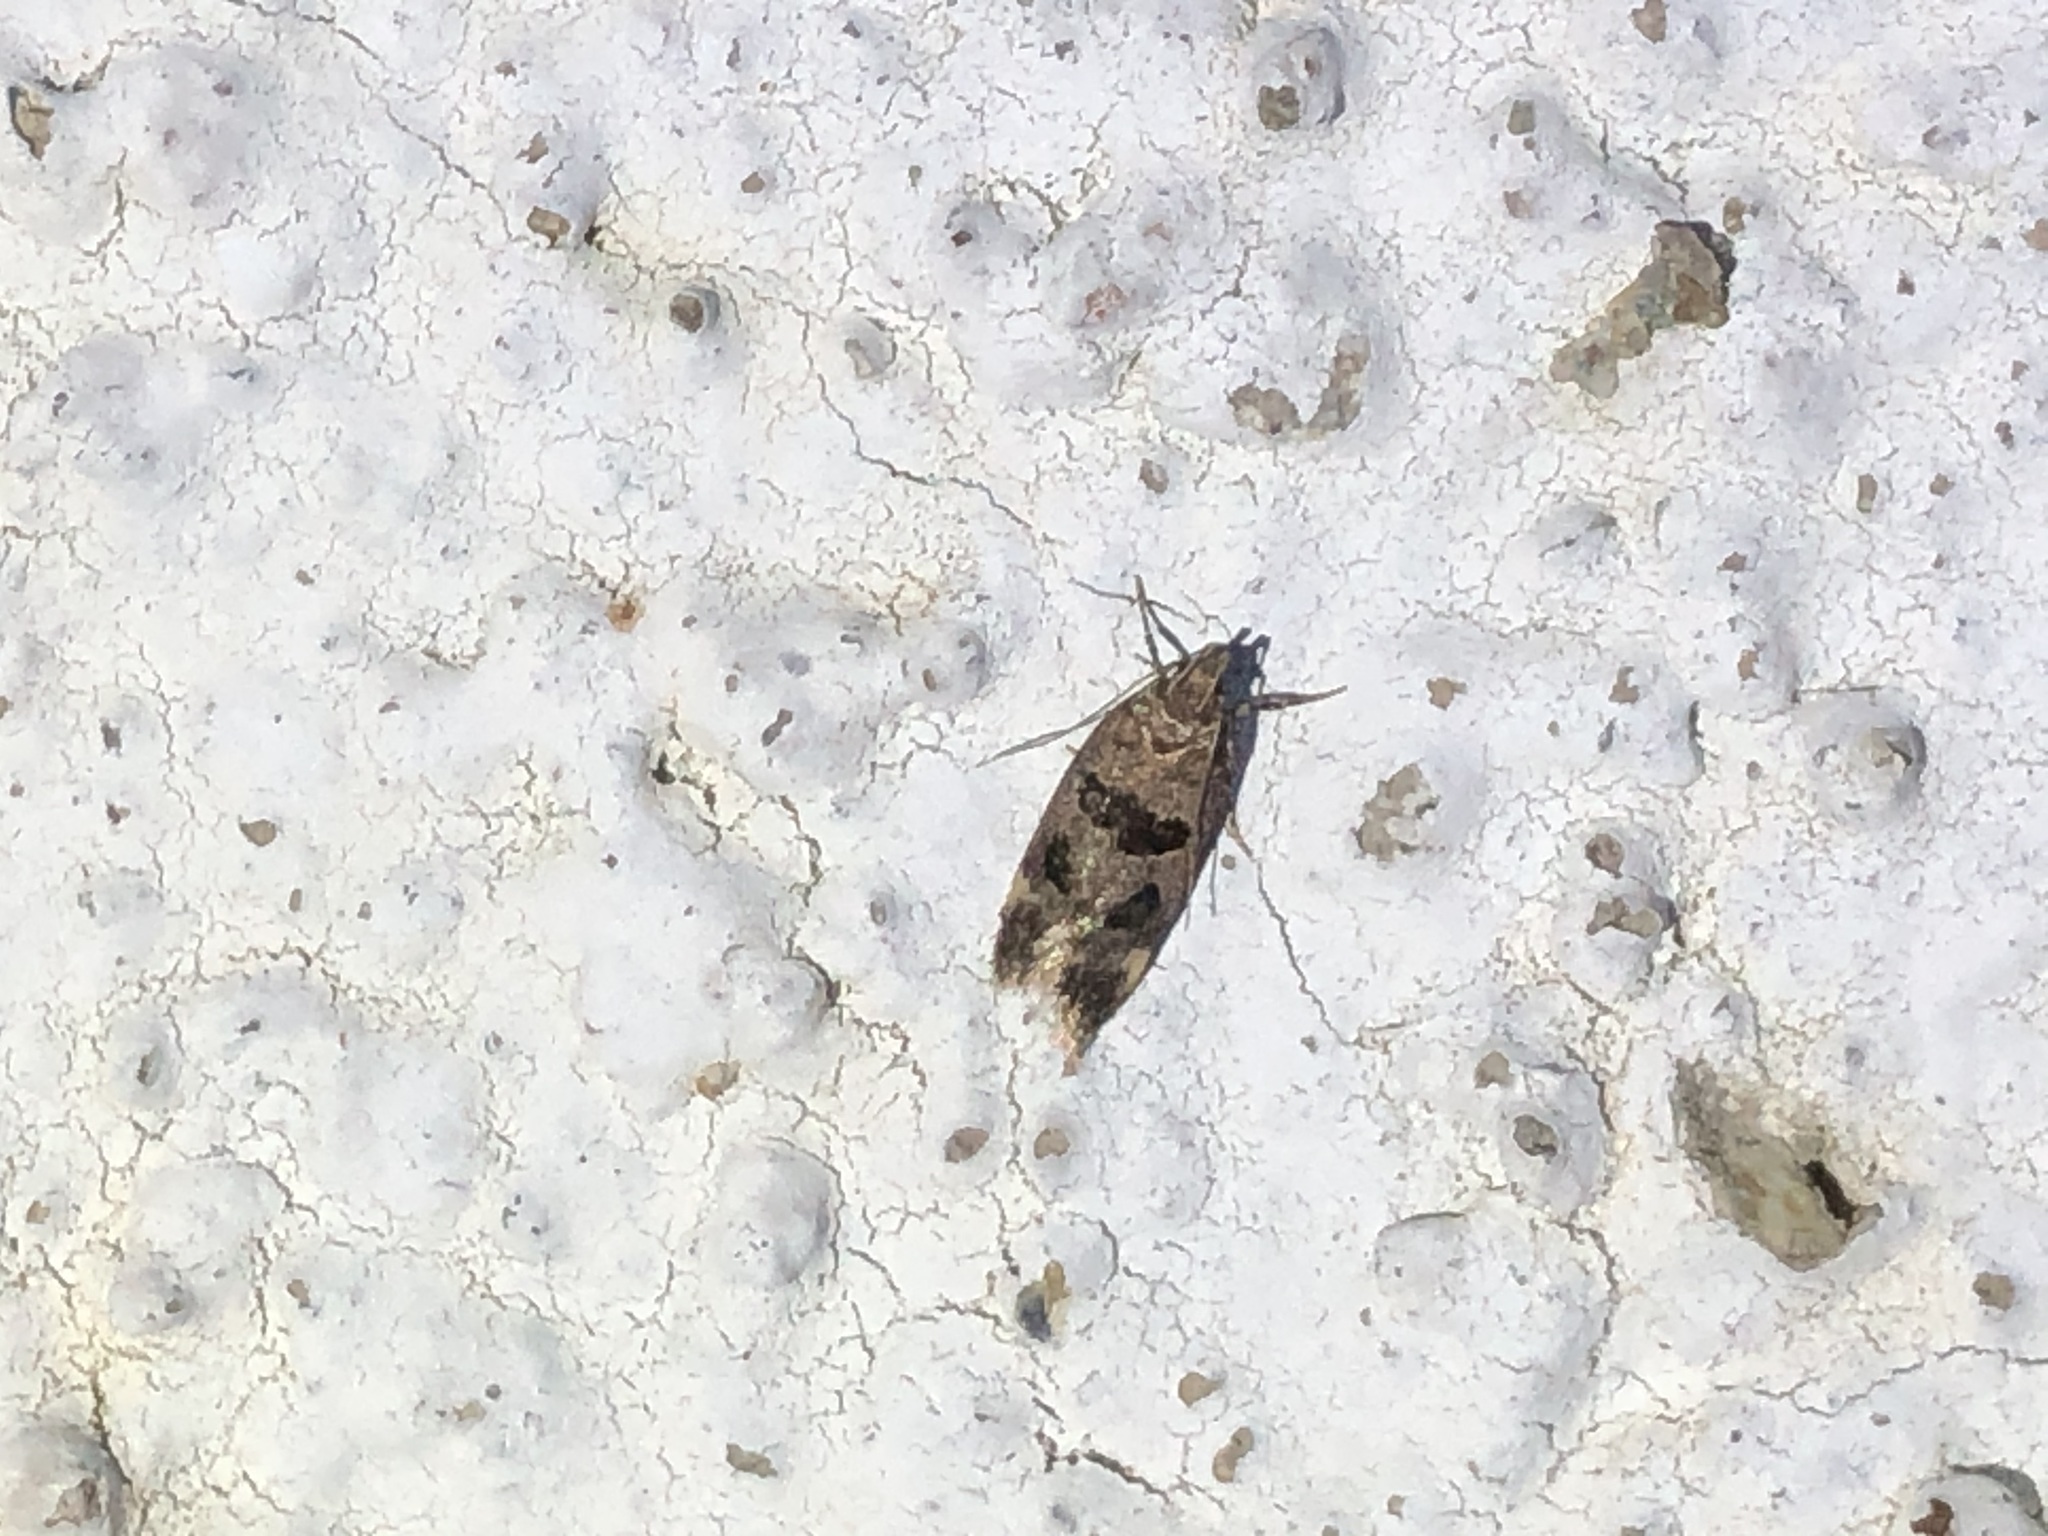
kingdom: Animalia
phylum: Arthropoda
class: Insecta
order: Lepidoptera
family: Gelechiidae
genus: Mirificarma
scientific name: Mirificarma maculatella
